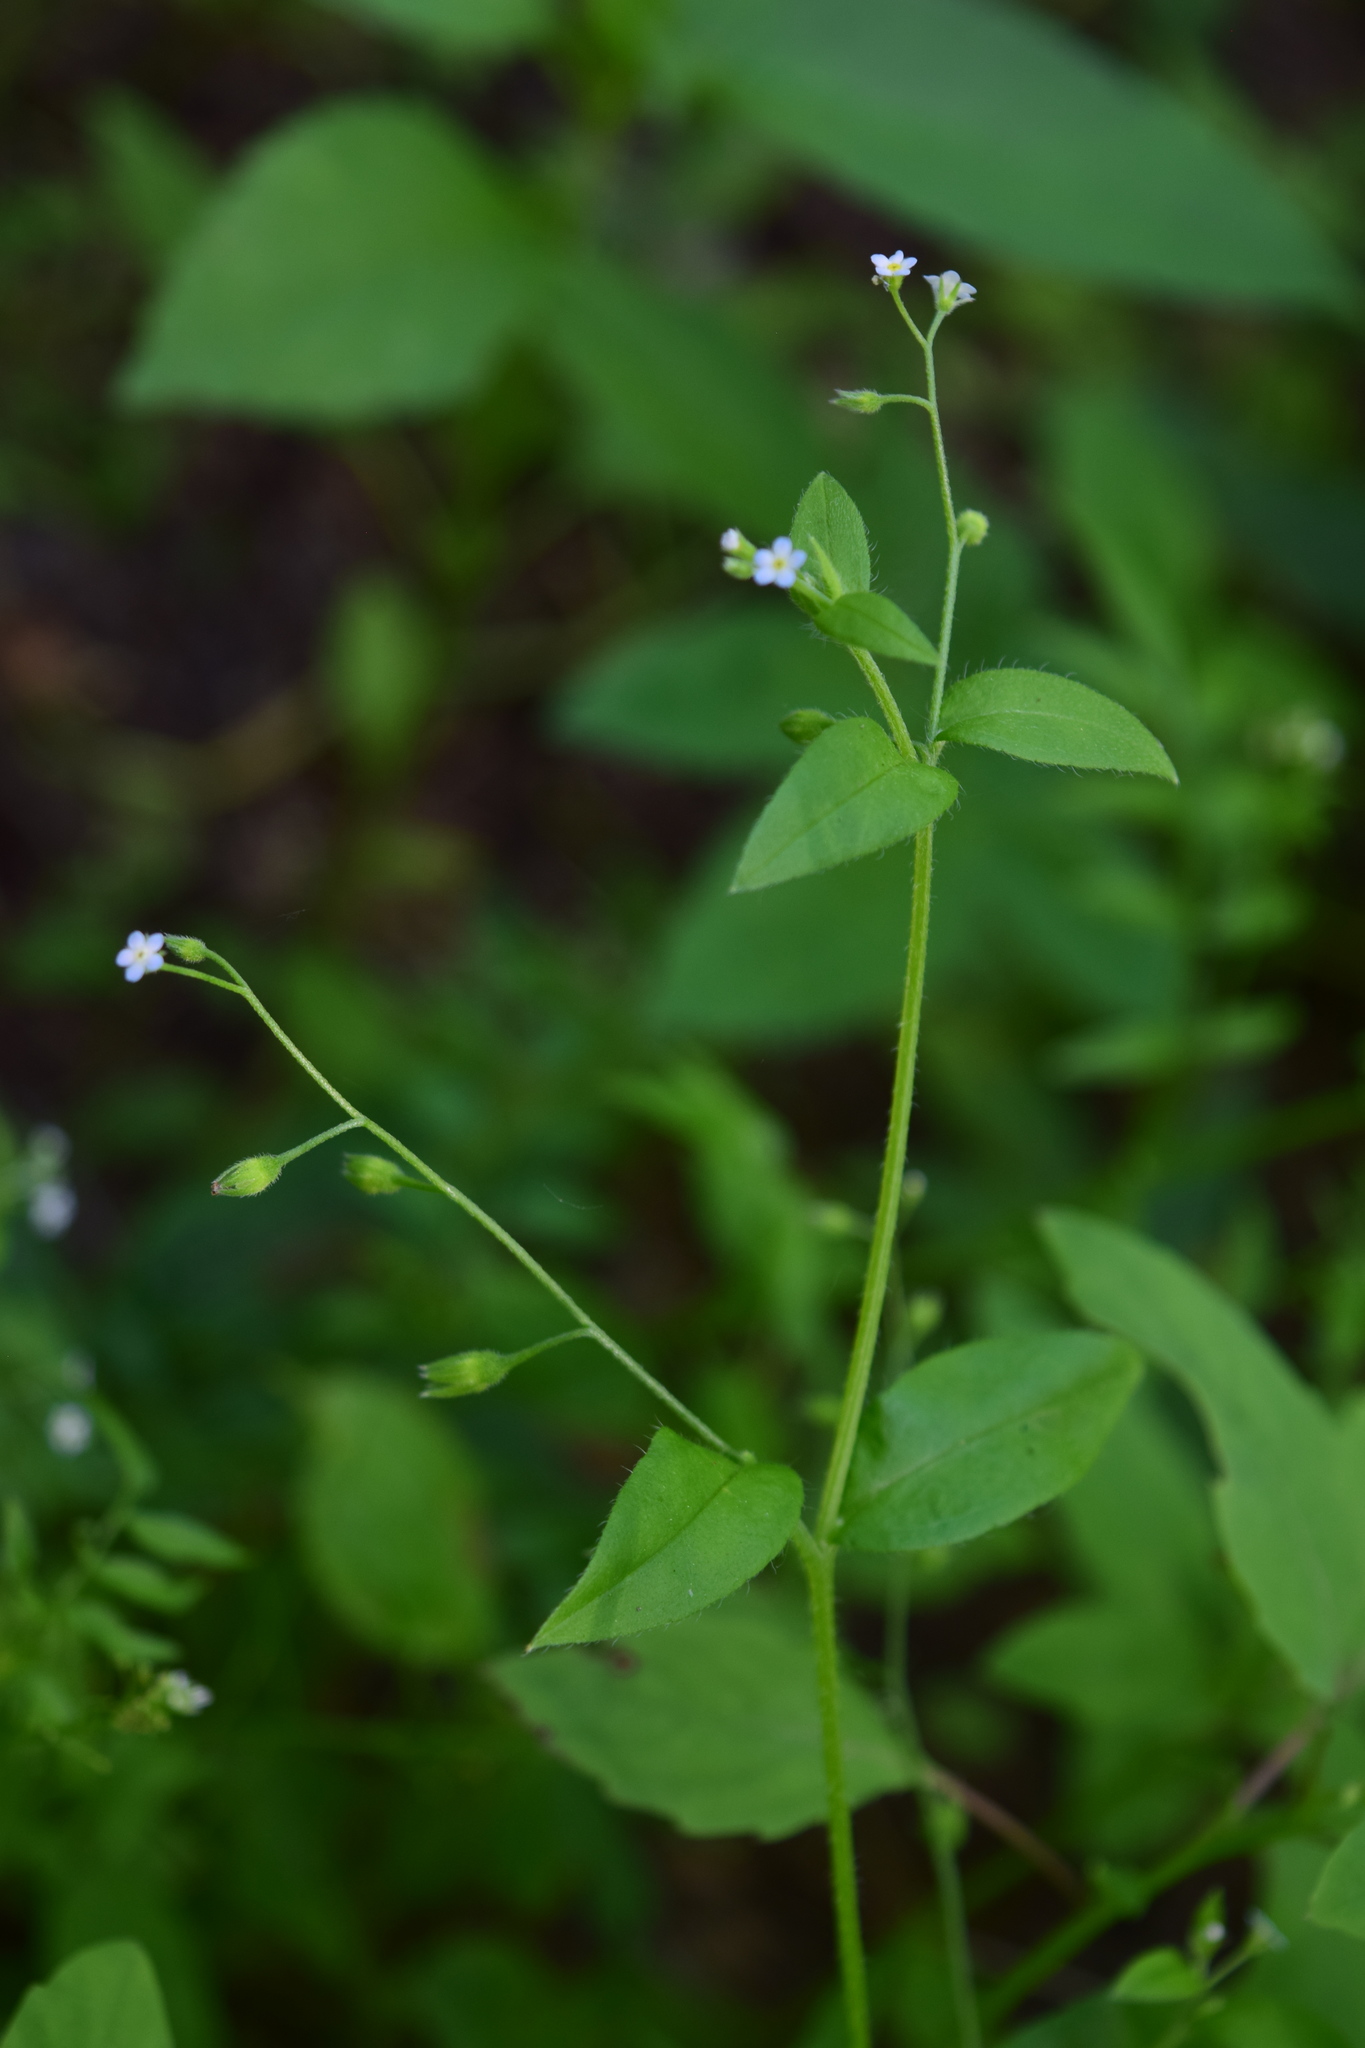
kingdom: Plantae
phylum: Tracheophyta
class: Magnoliopsida
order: Boraginales
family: Boraginaceae
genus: Myosotis
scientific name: Myosotis sparsiflora
